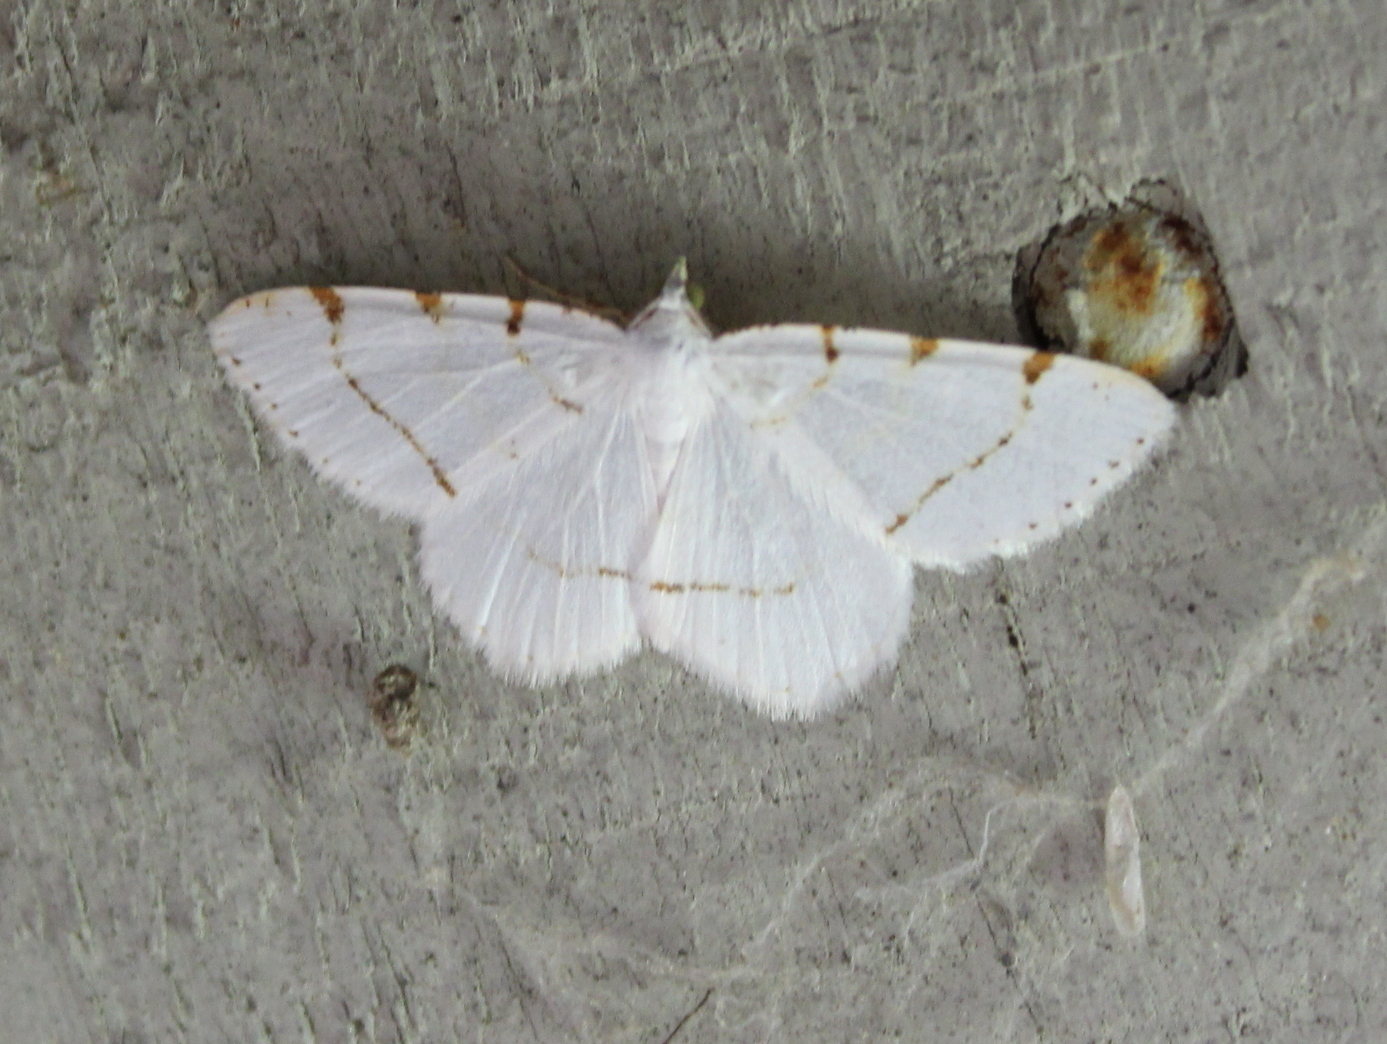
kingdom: Animalia
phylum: Arthropoda
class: Insecta
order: Lepidoptera
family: Geometridae
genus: Macaria
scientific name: Macaria pustularia
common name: Lesser maple spanworm moth
